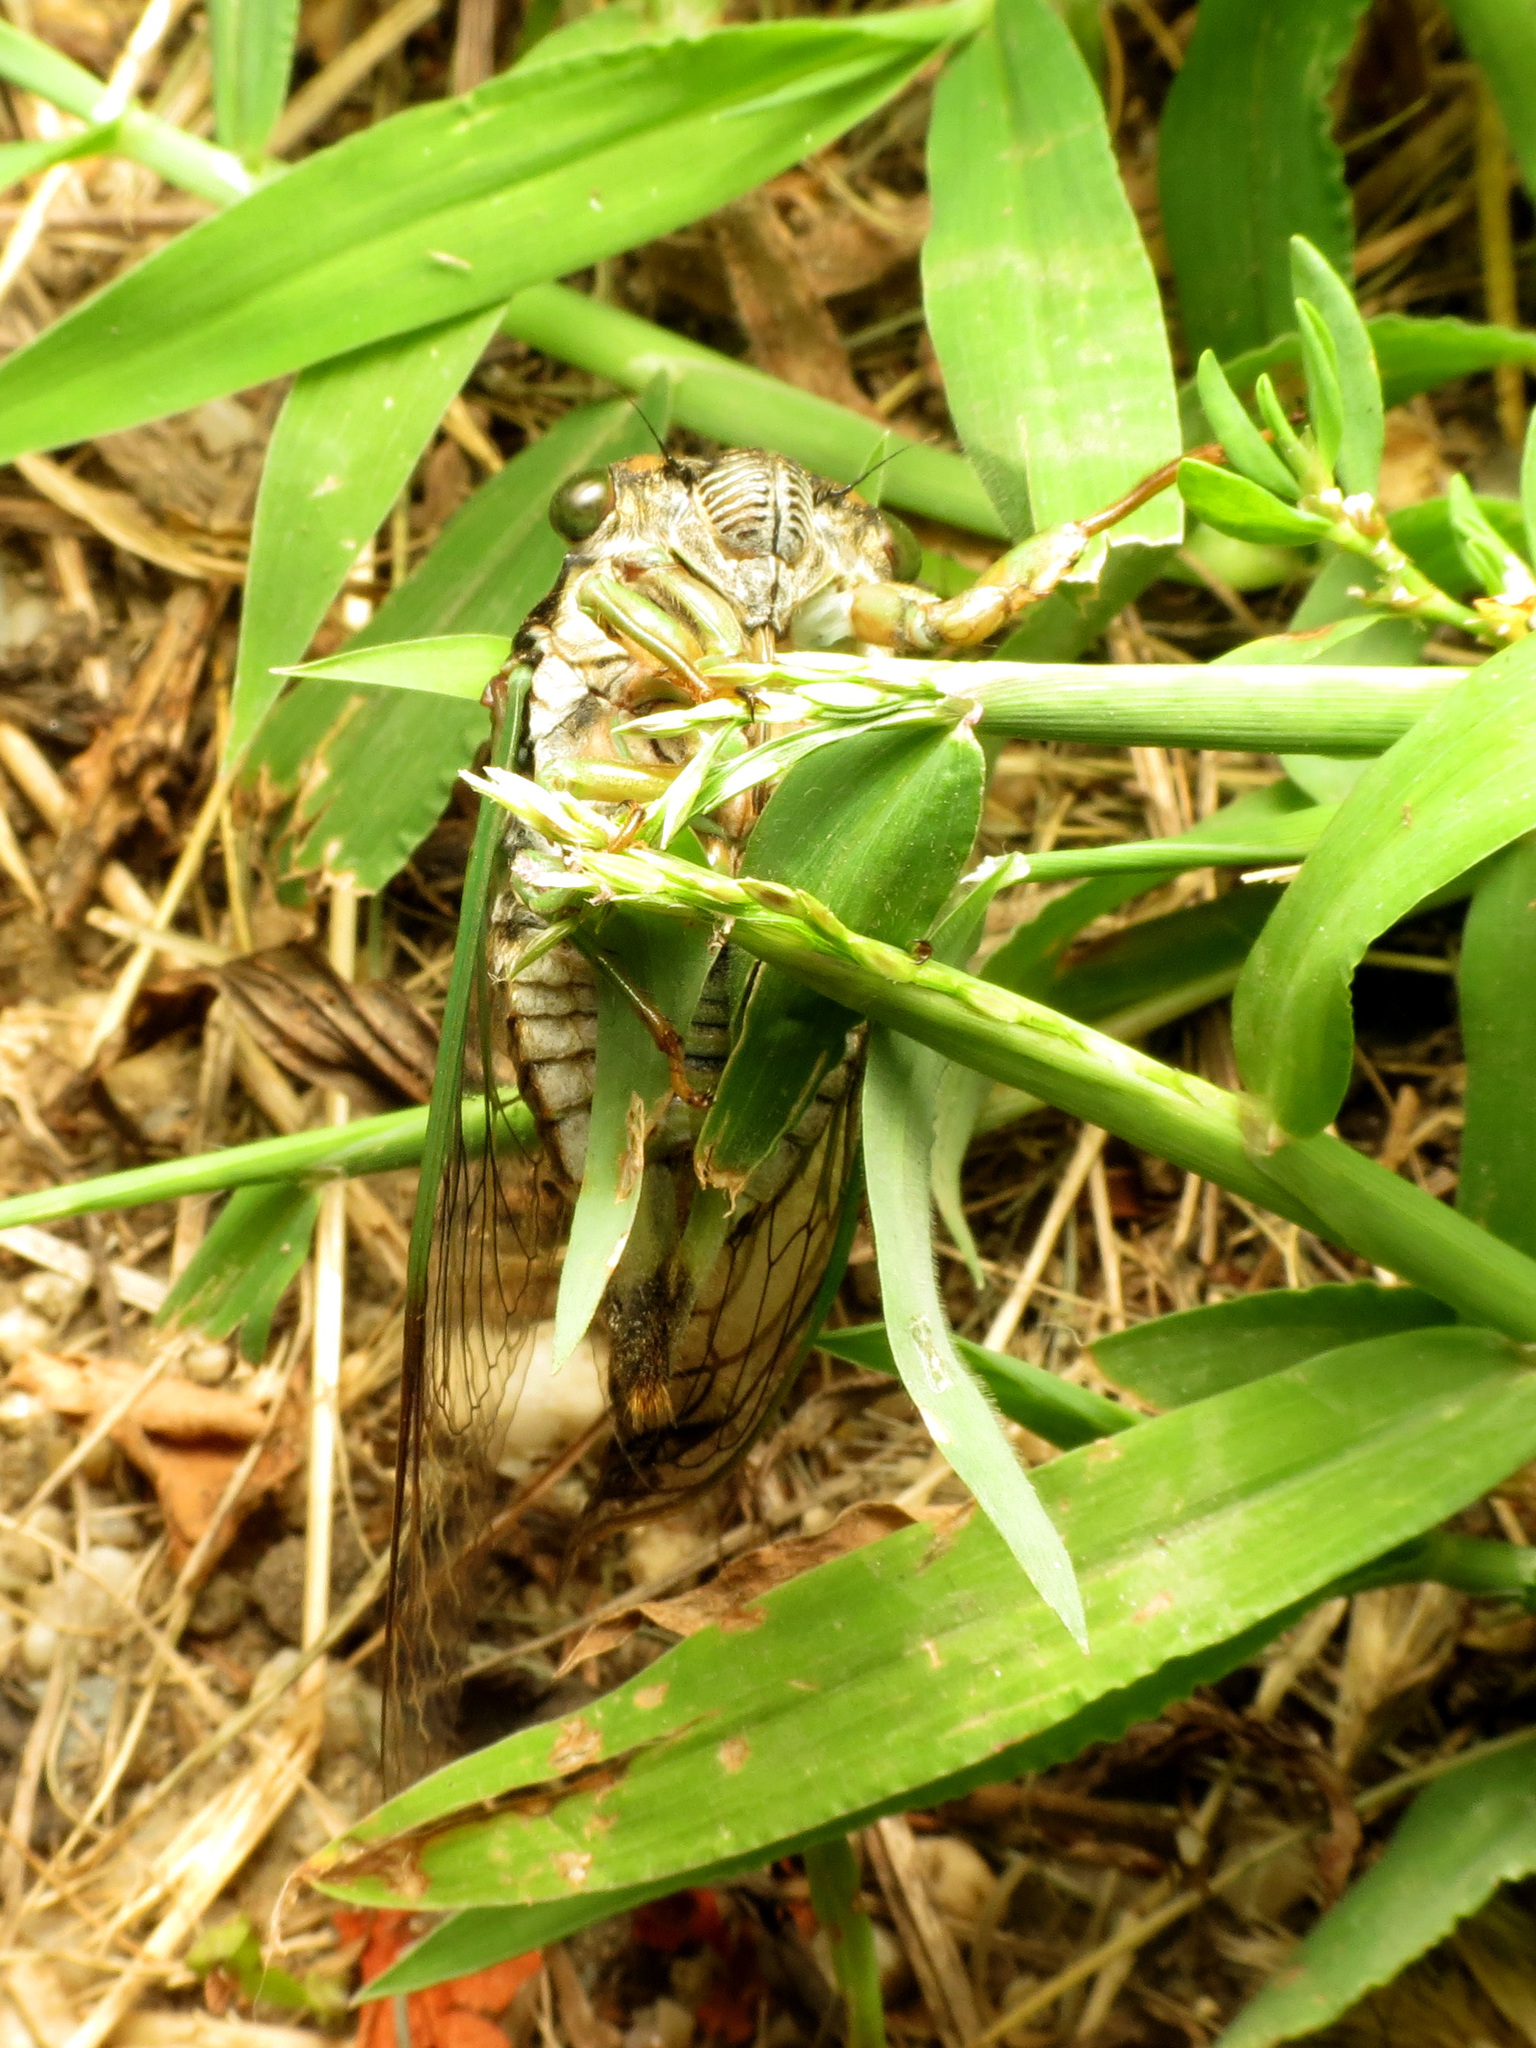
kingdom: Animalia
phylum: Arthropoda
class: Insecta
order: Hemiptera
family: Cicadidae
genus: Neotibicen
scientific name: Neotibicen tibicen
